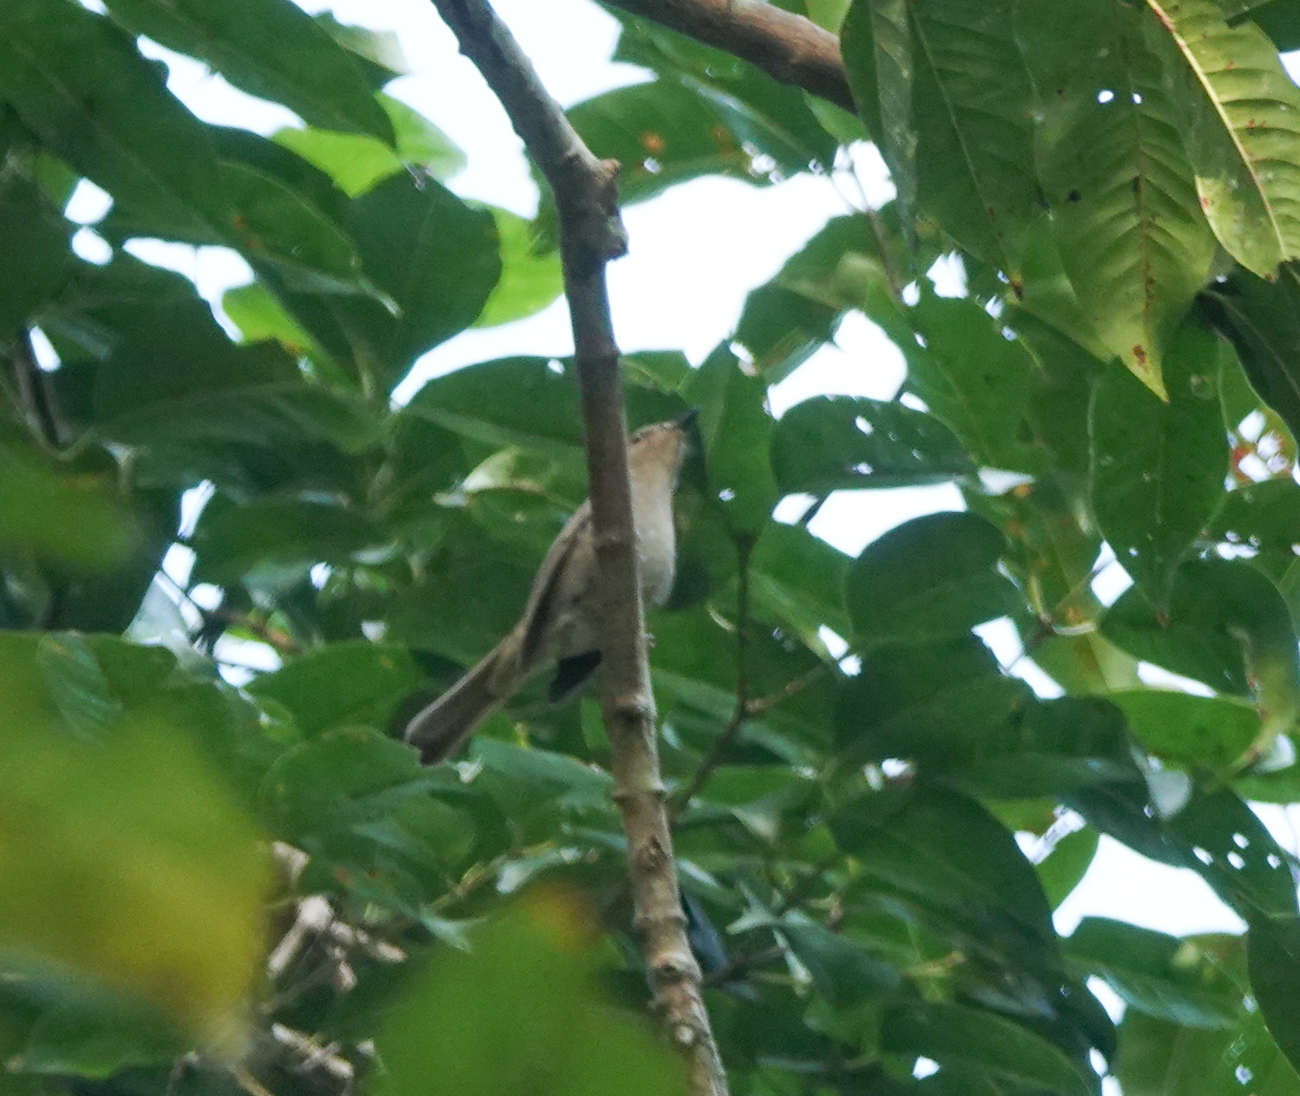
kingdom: Animalia
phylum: Chordata
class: Aves
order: Passeriformes
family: Muscicapidae
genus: Cyornis
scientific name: Cyornis unicolor
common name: Pale blue flycatcher
